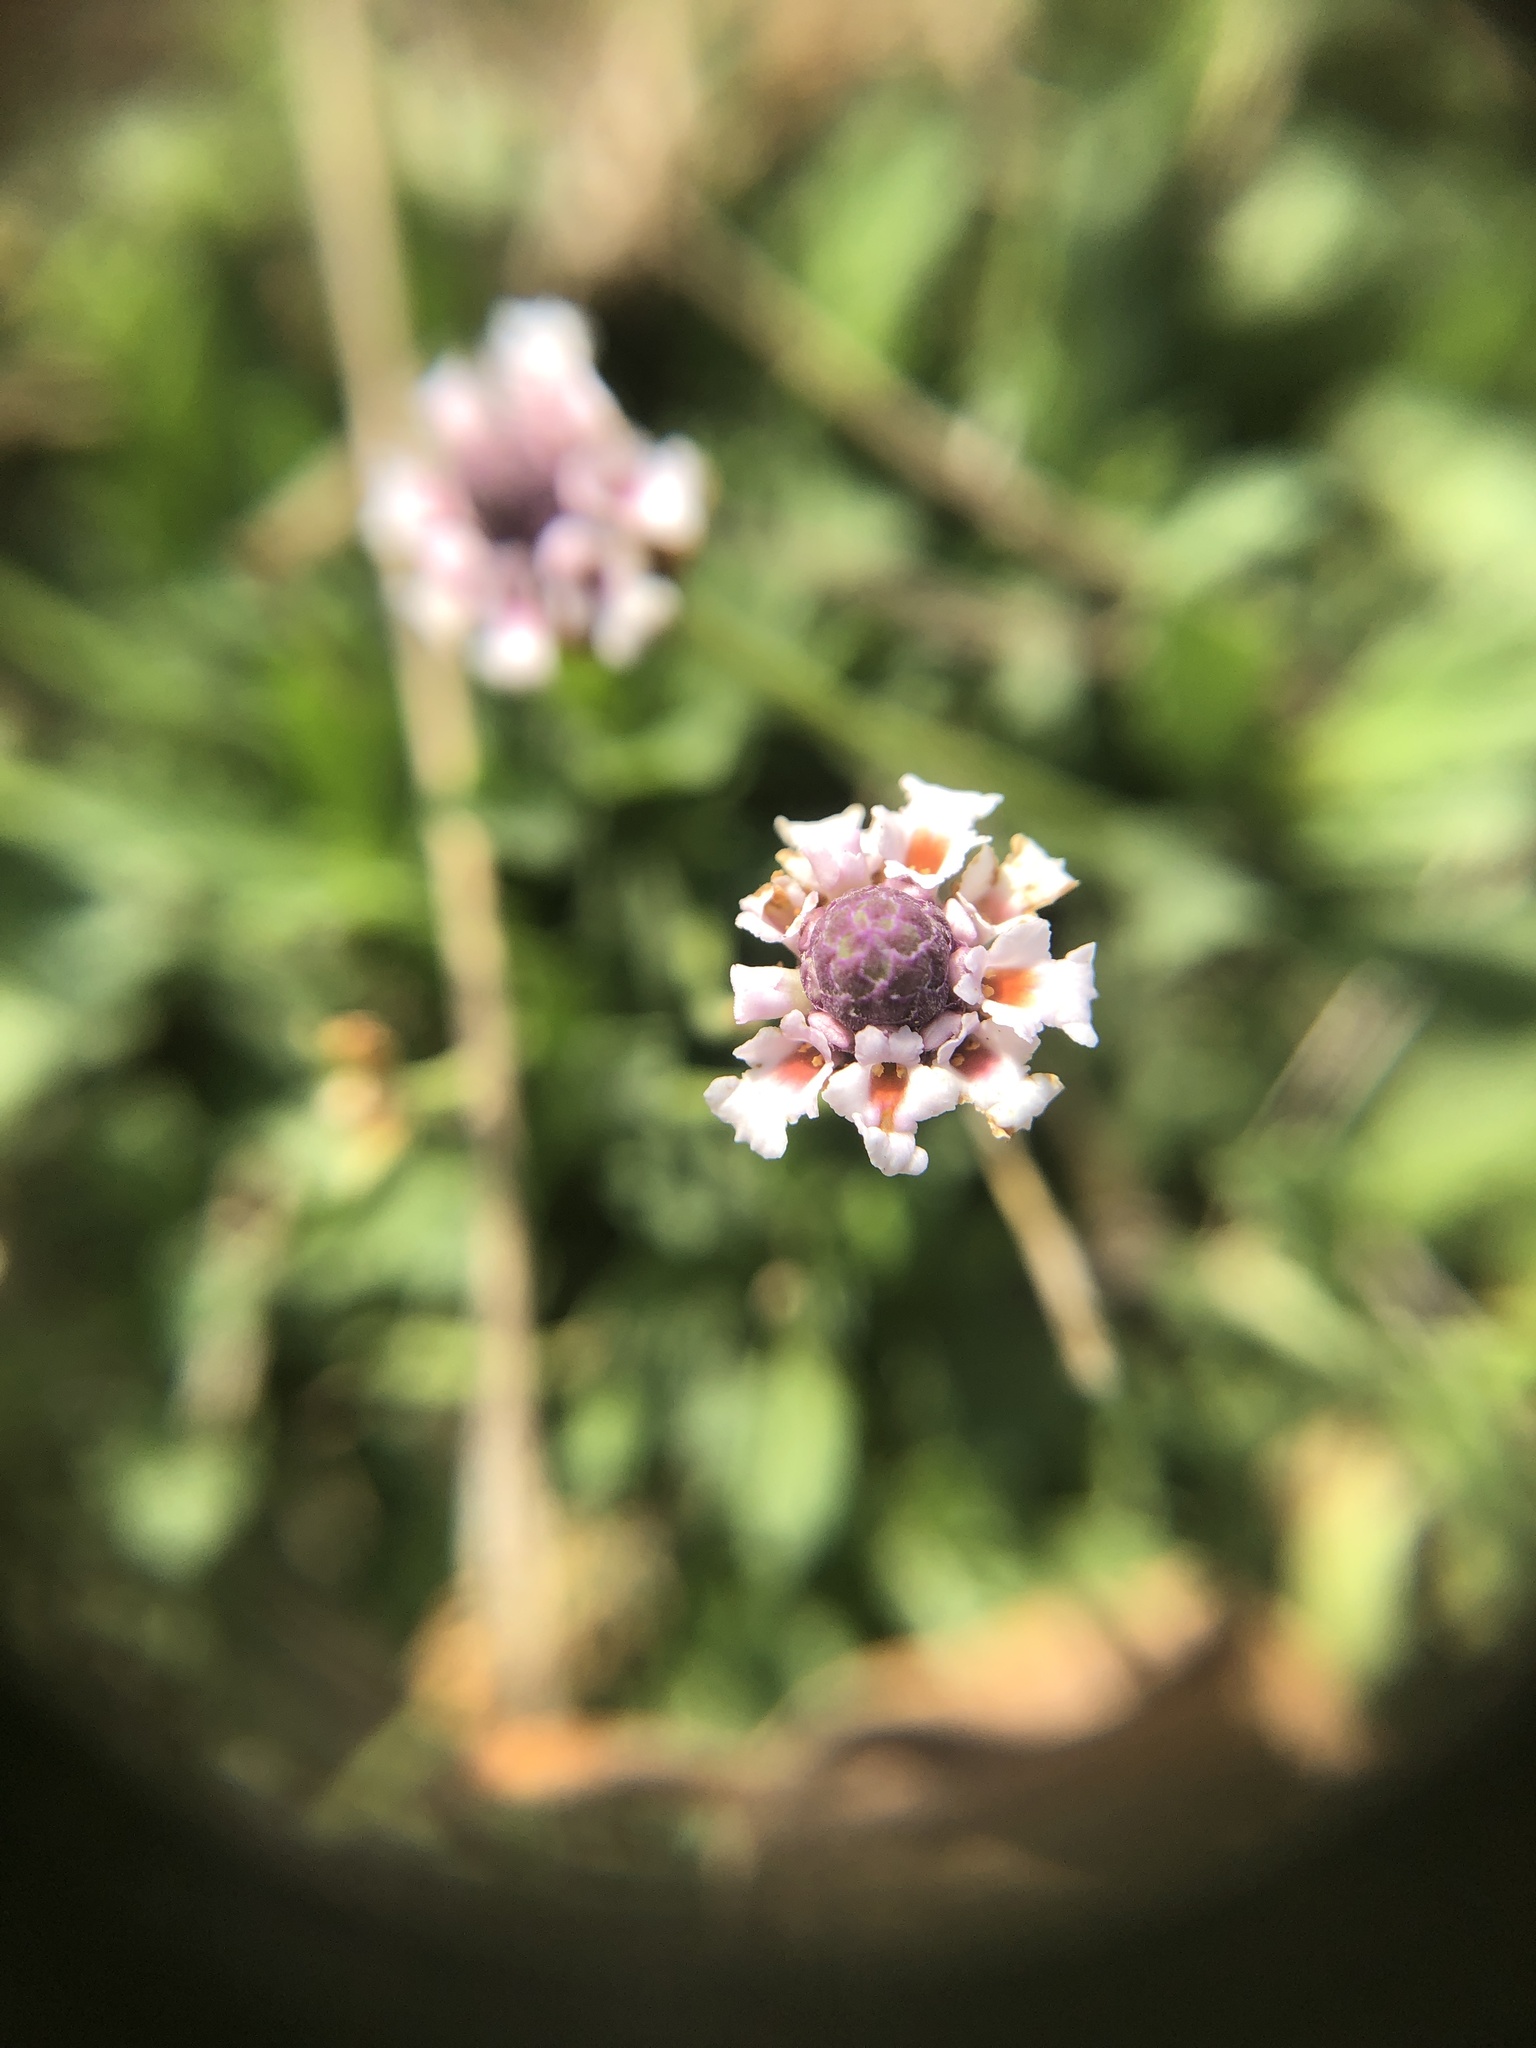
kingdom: Plantae
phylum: Tracheophyta
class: Magnoliopsida
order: Lamiales
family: Verbenaceae
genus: Phyla
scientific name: Phyla nodiflora
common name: Frogfruit
